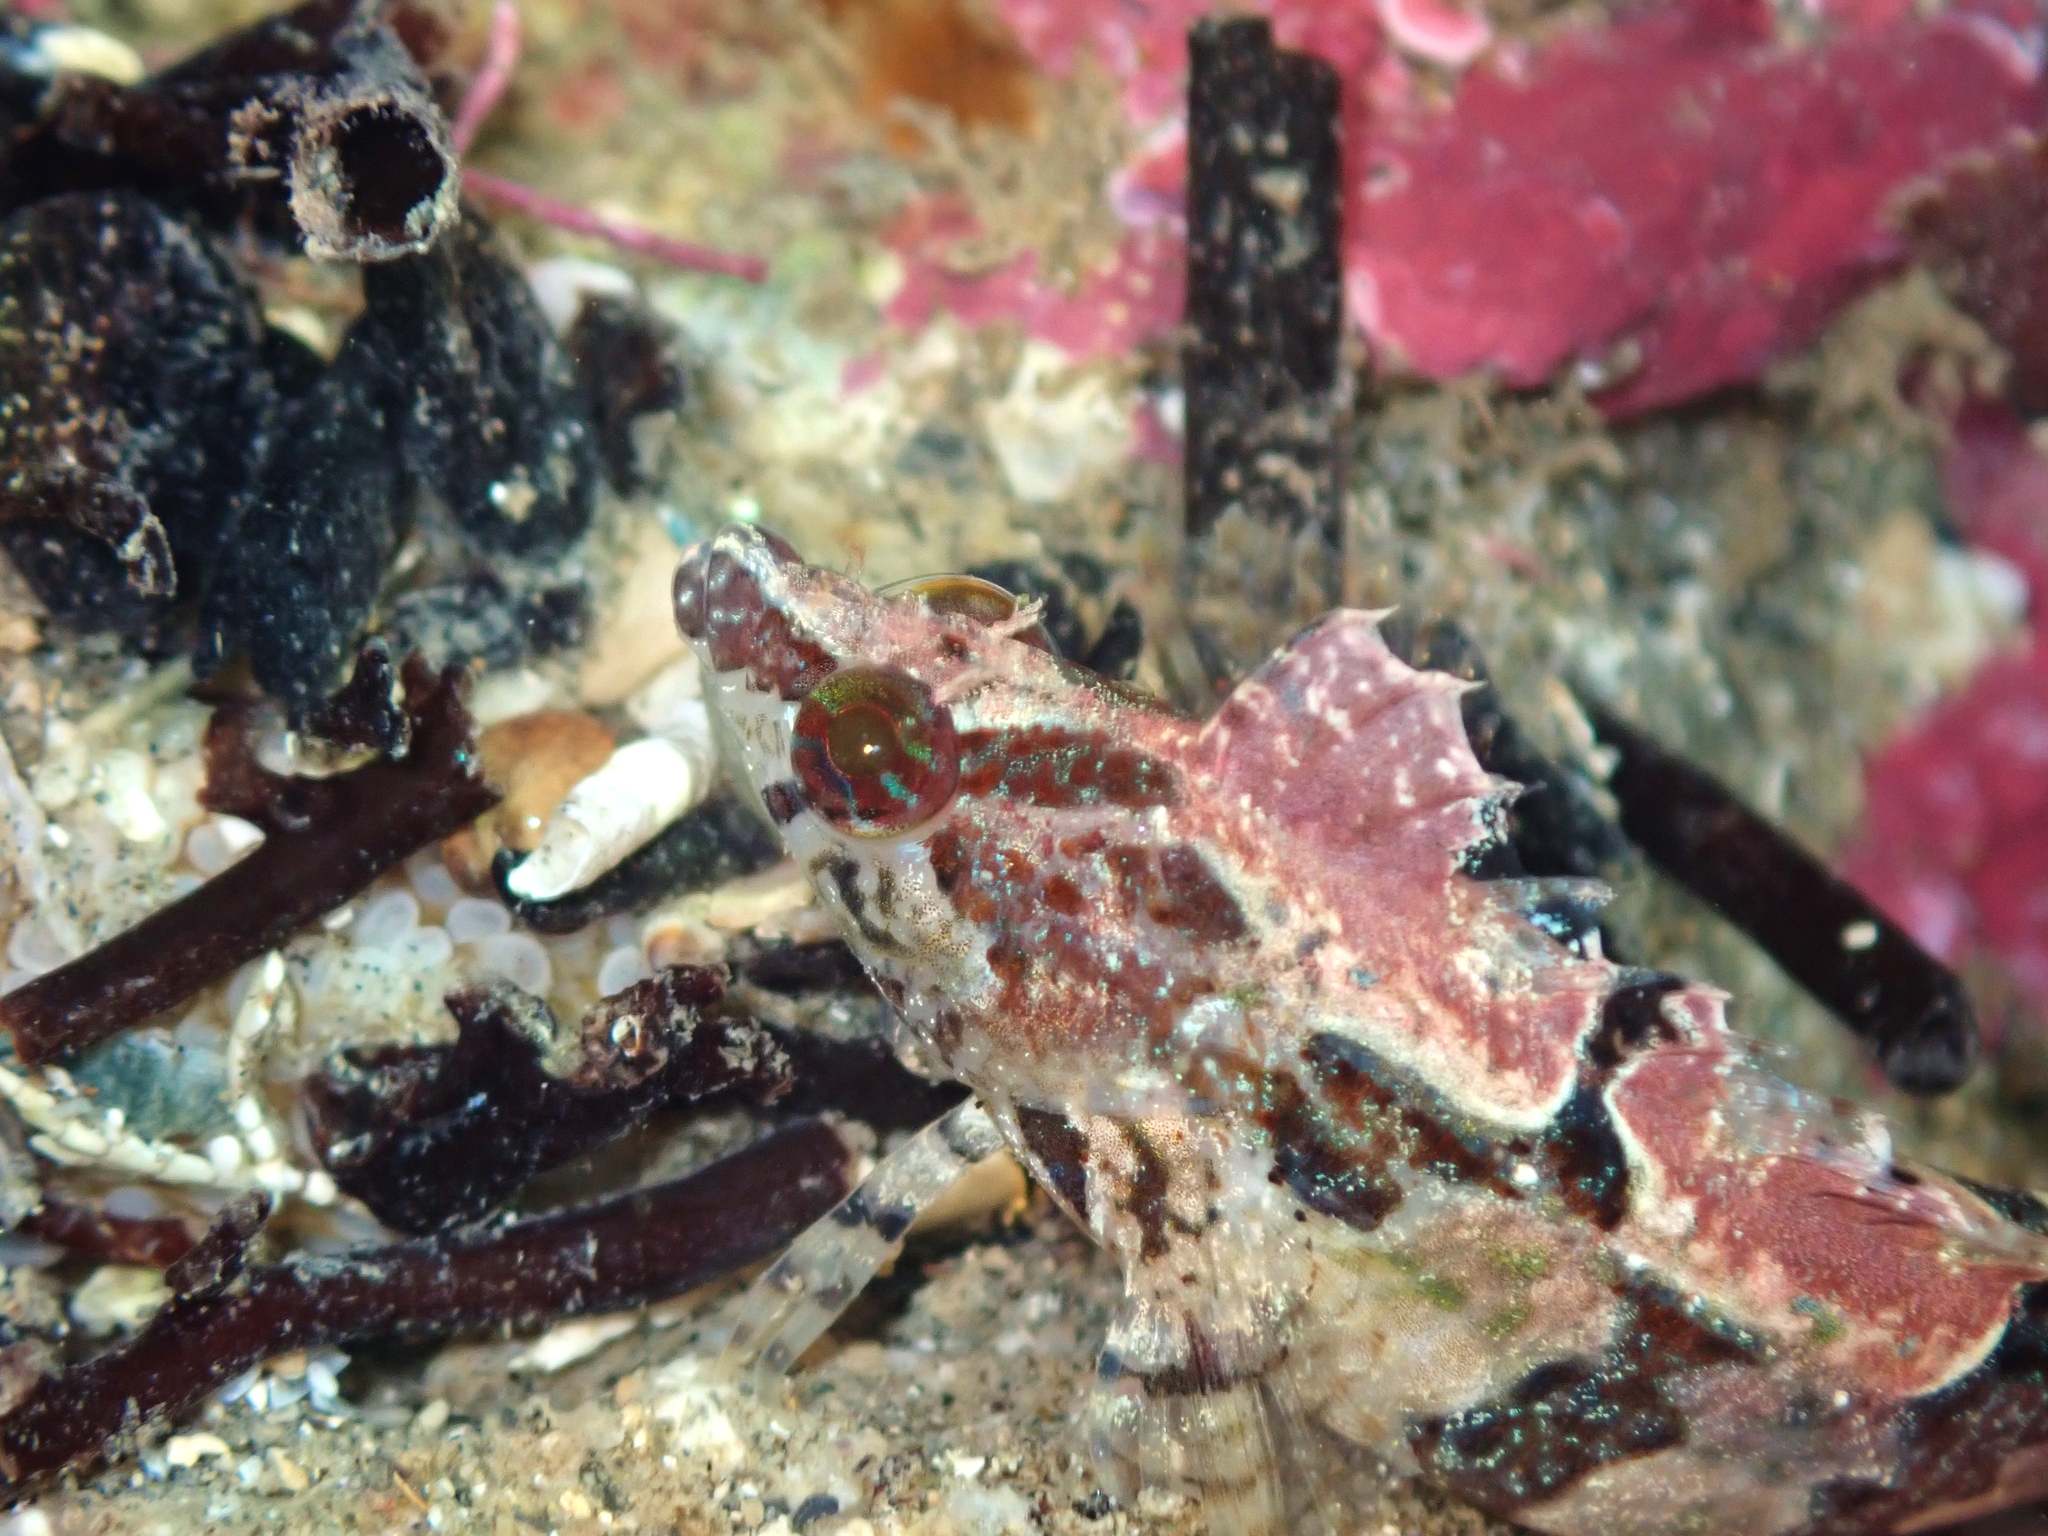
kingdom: Animalia
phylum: Chordata
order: Perciformes
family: Clinidae
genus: Ericentrus
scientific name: Ericentrus rubrus
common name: Orange clinid
